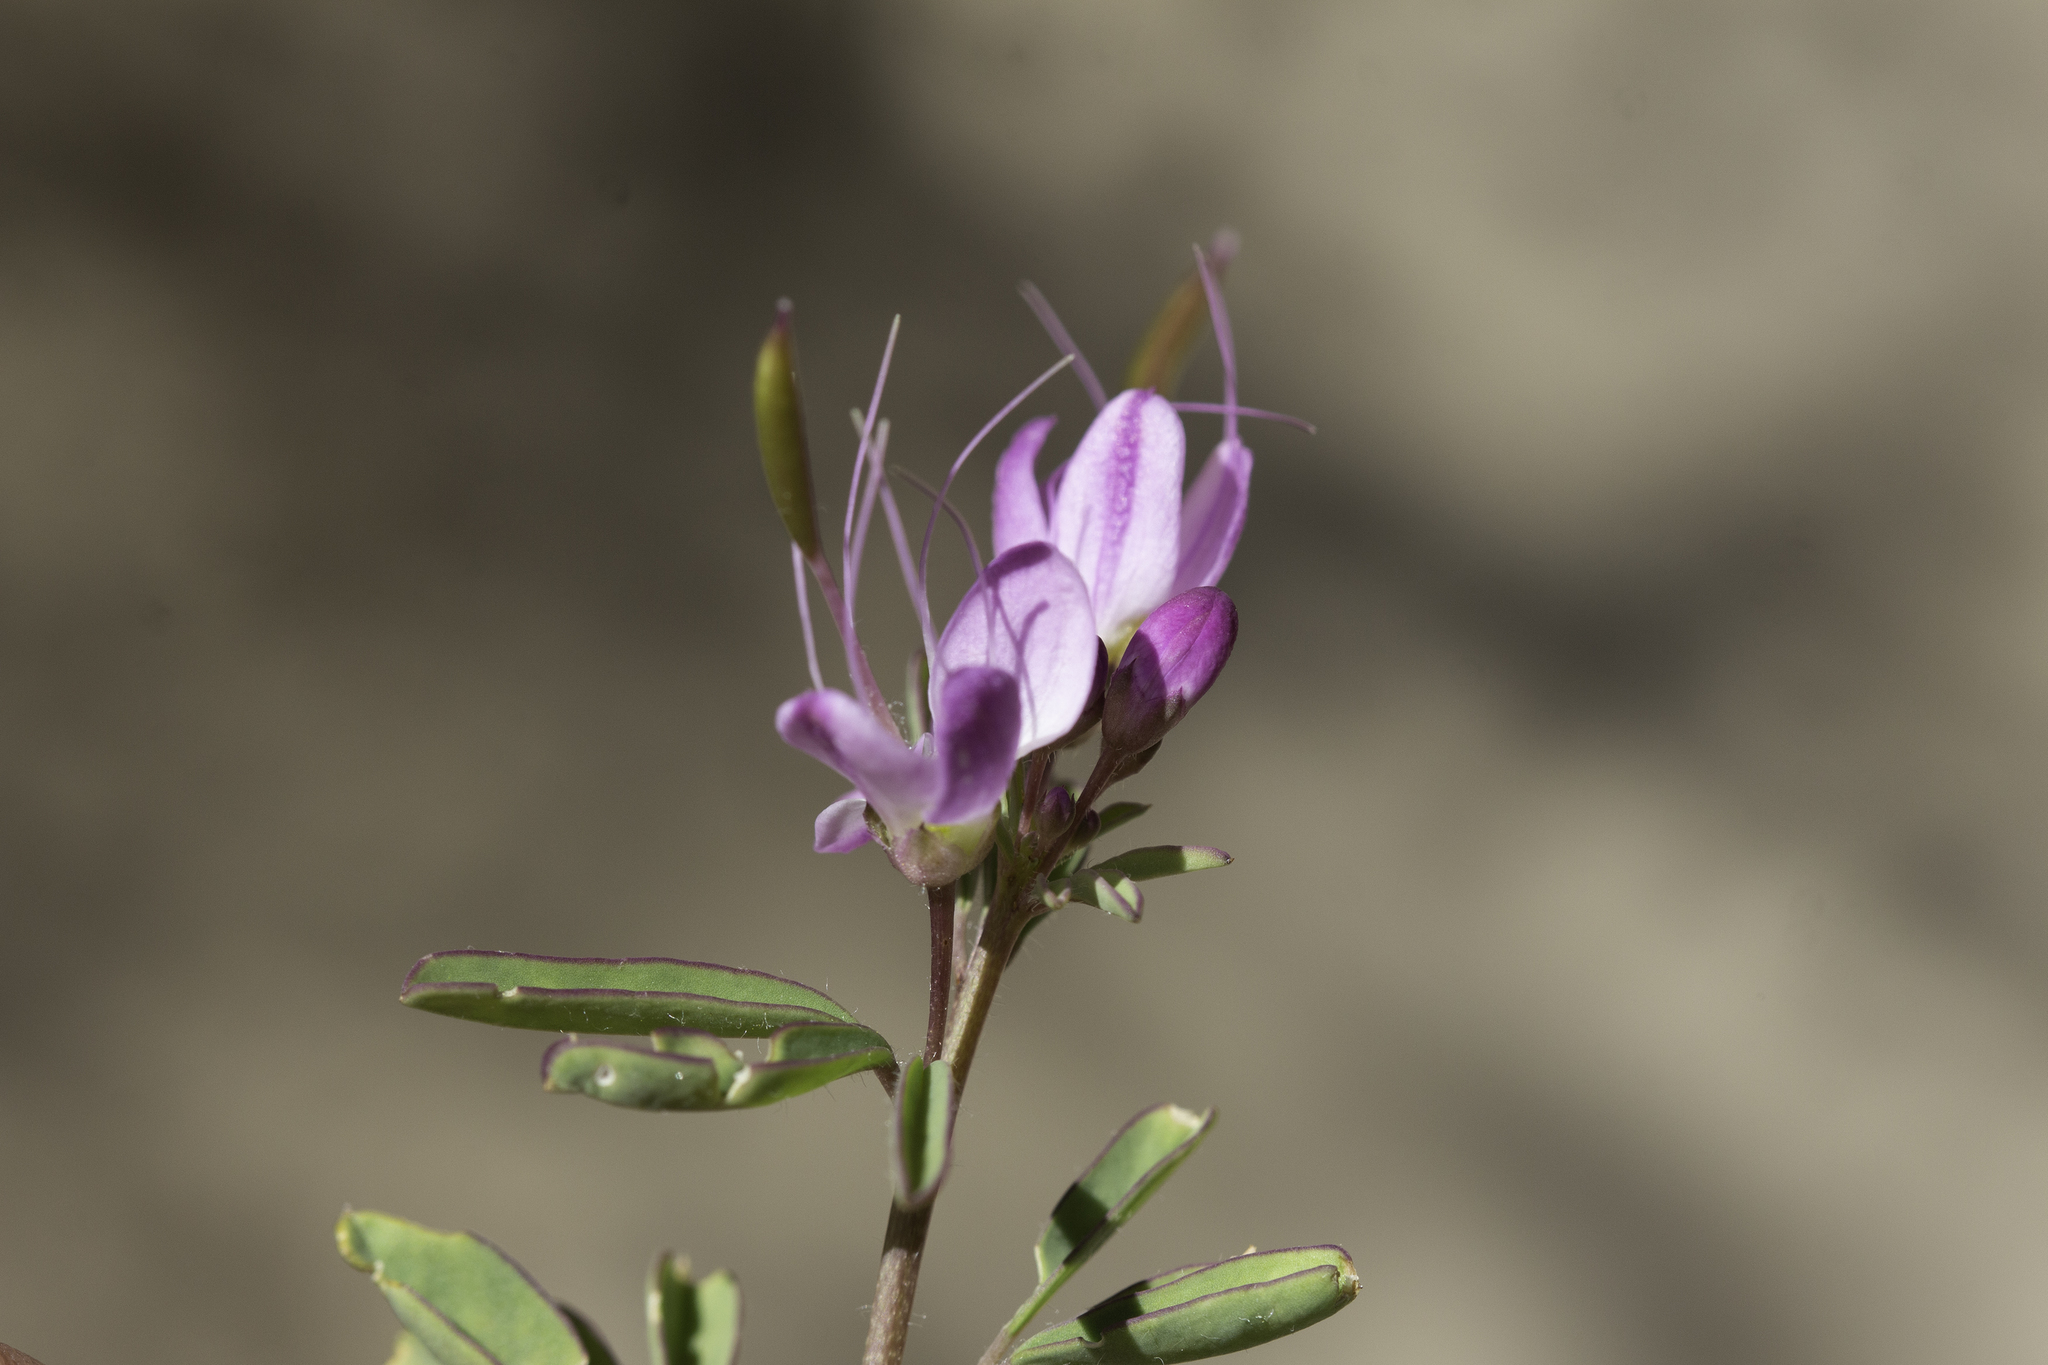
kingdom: Plantae
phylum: Tracheophyta
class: Magnoliopsida
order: Brassicales
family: Cleomaceae
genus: Cleomella
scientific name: Cleomella serrulata
